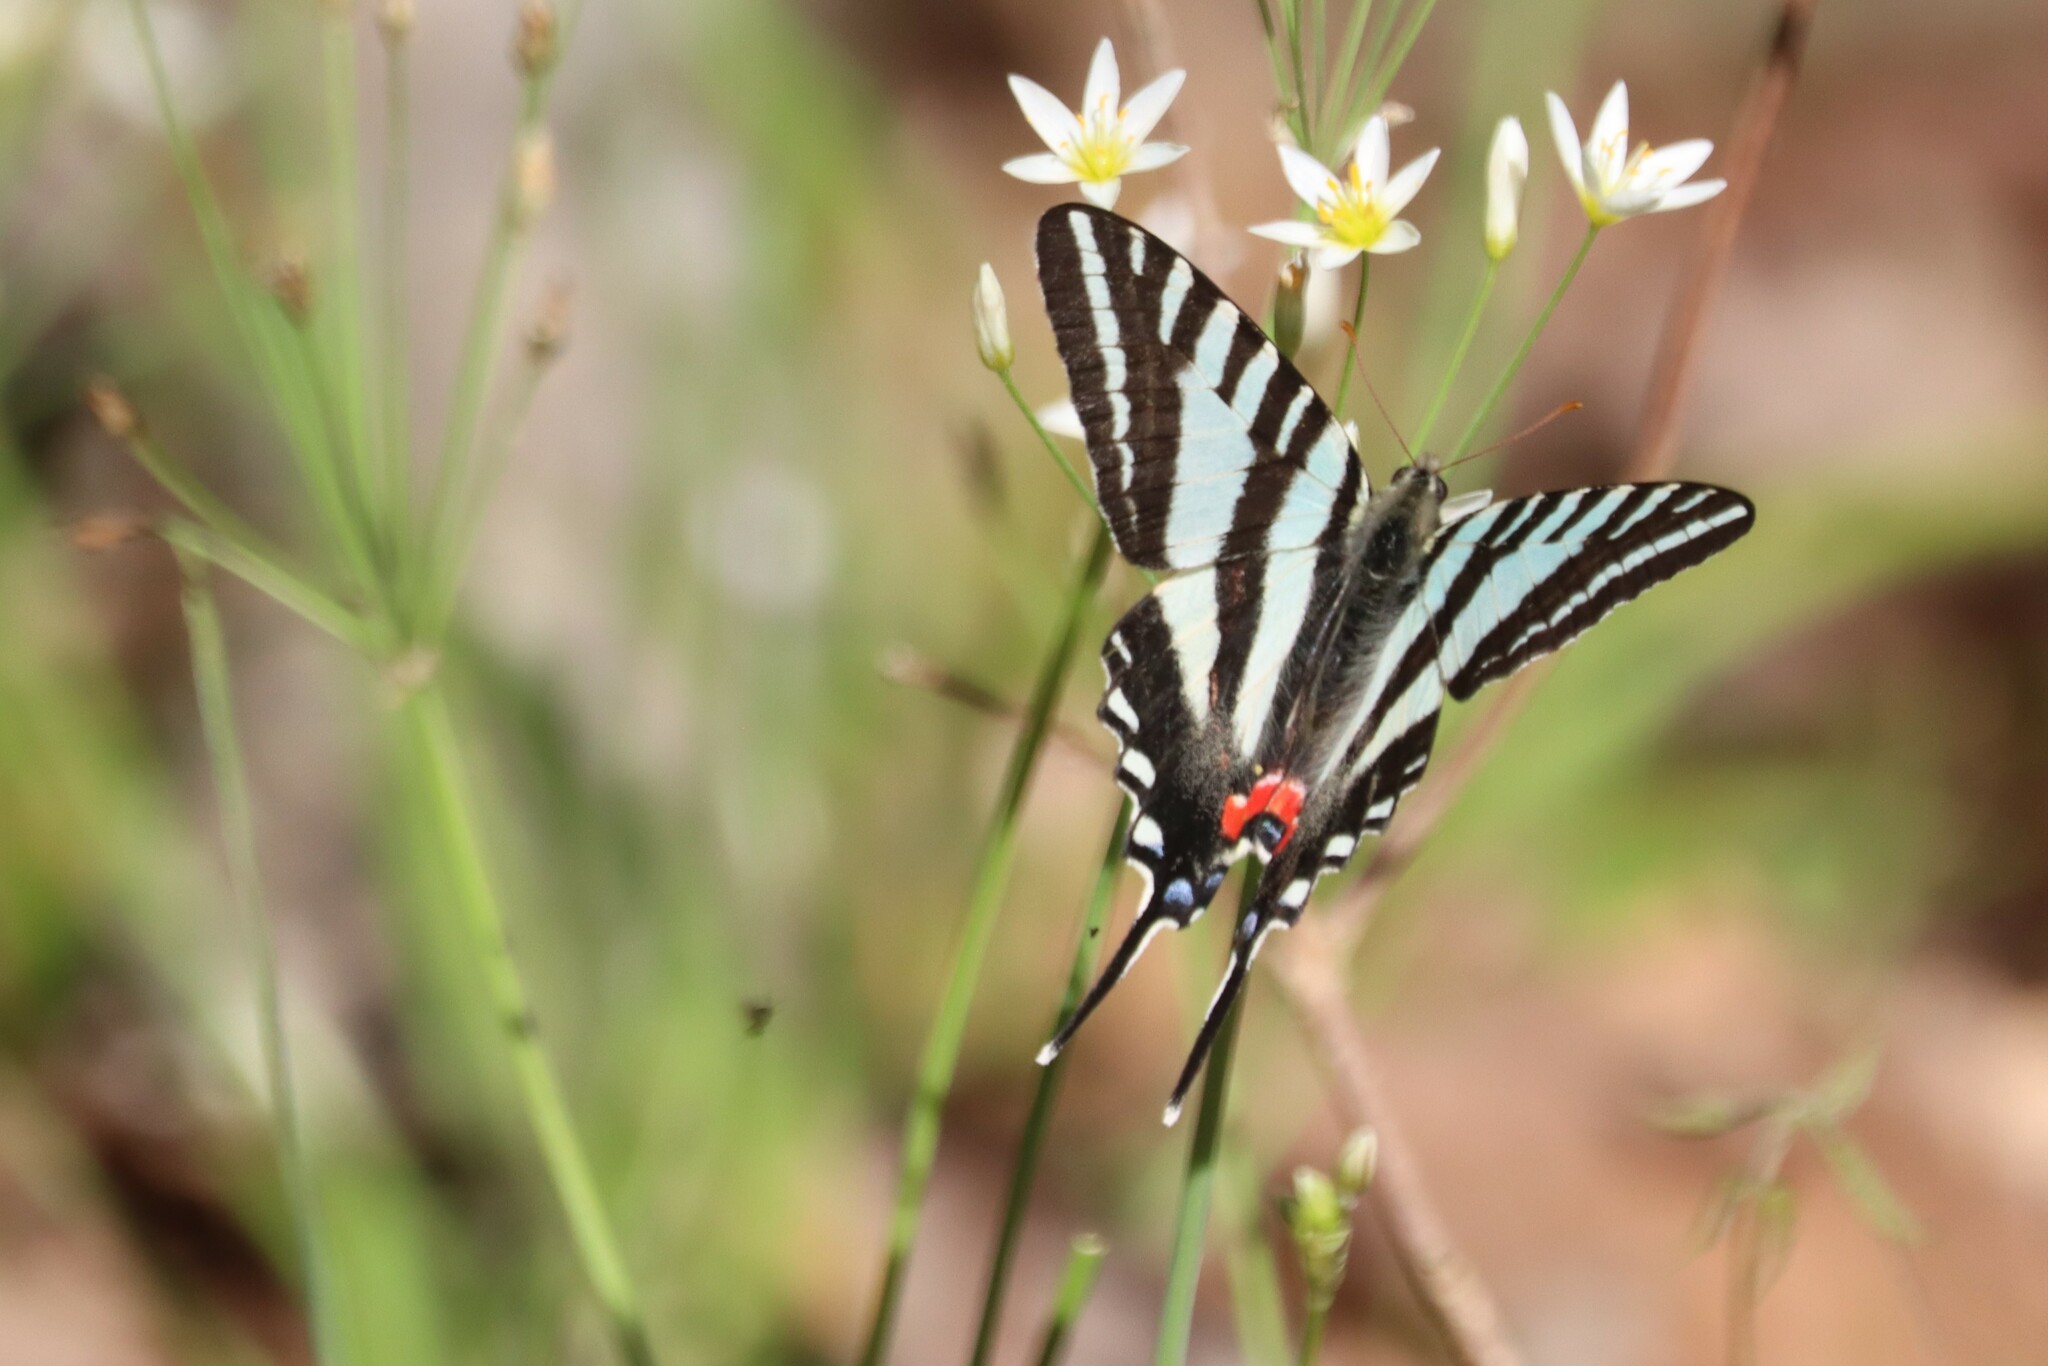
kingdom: Animalia
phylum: Arthropoda
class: Insecta
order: Lepidoptera
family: Papilionidae
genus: Protographium
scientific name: Protographium marcellus
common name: Zebra swallowtail
